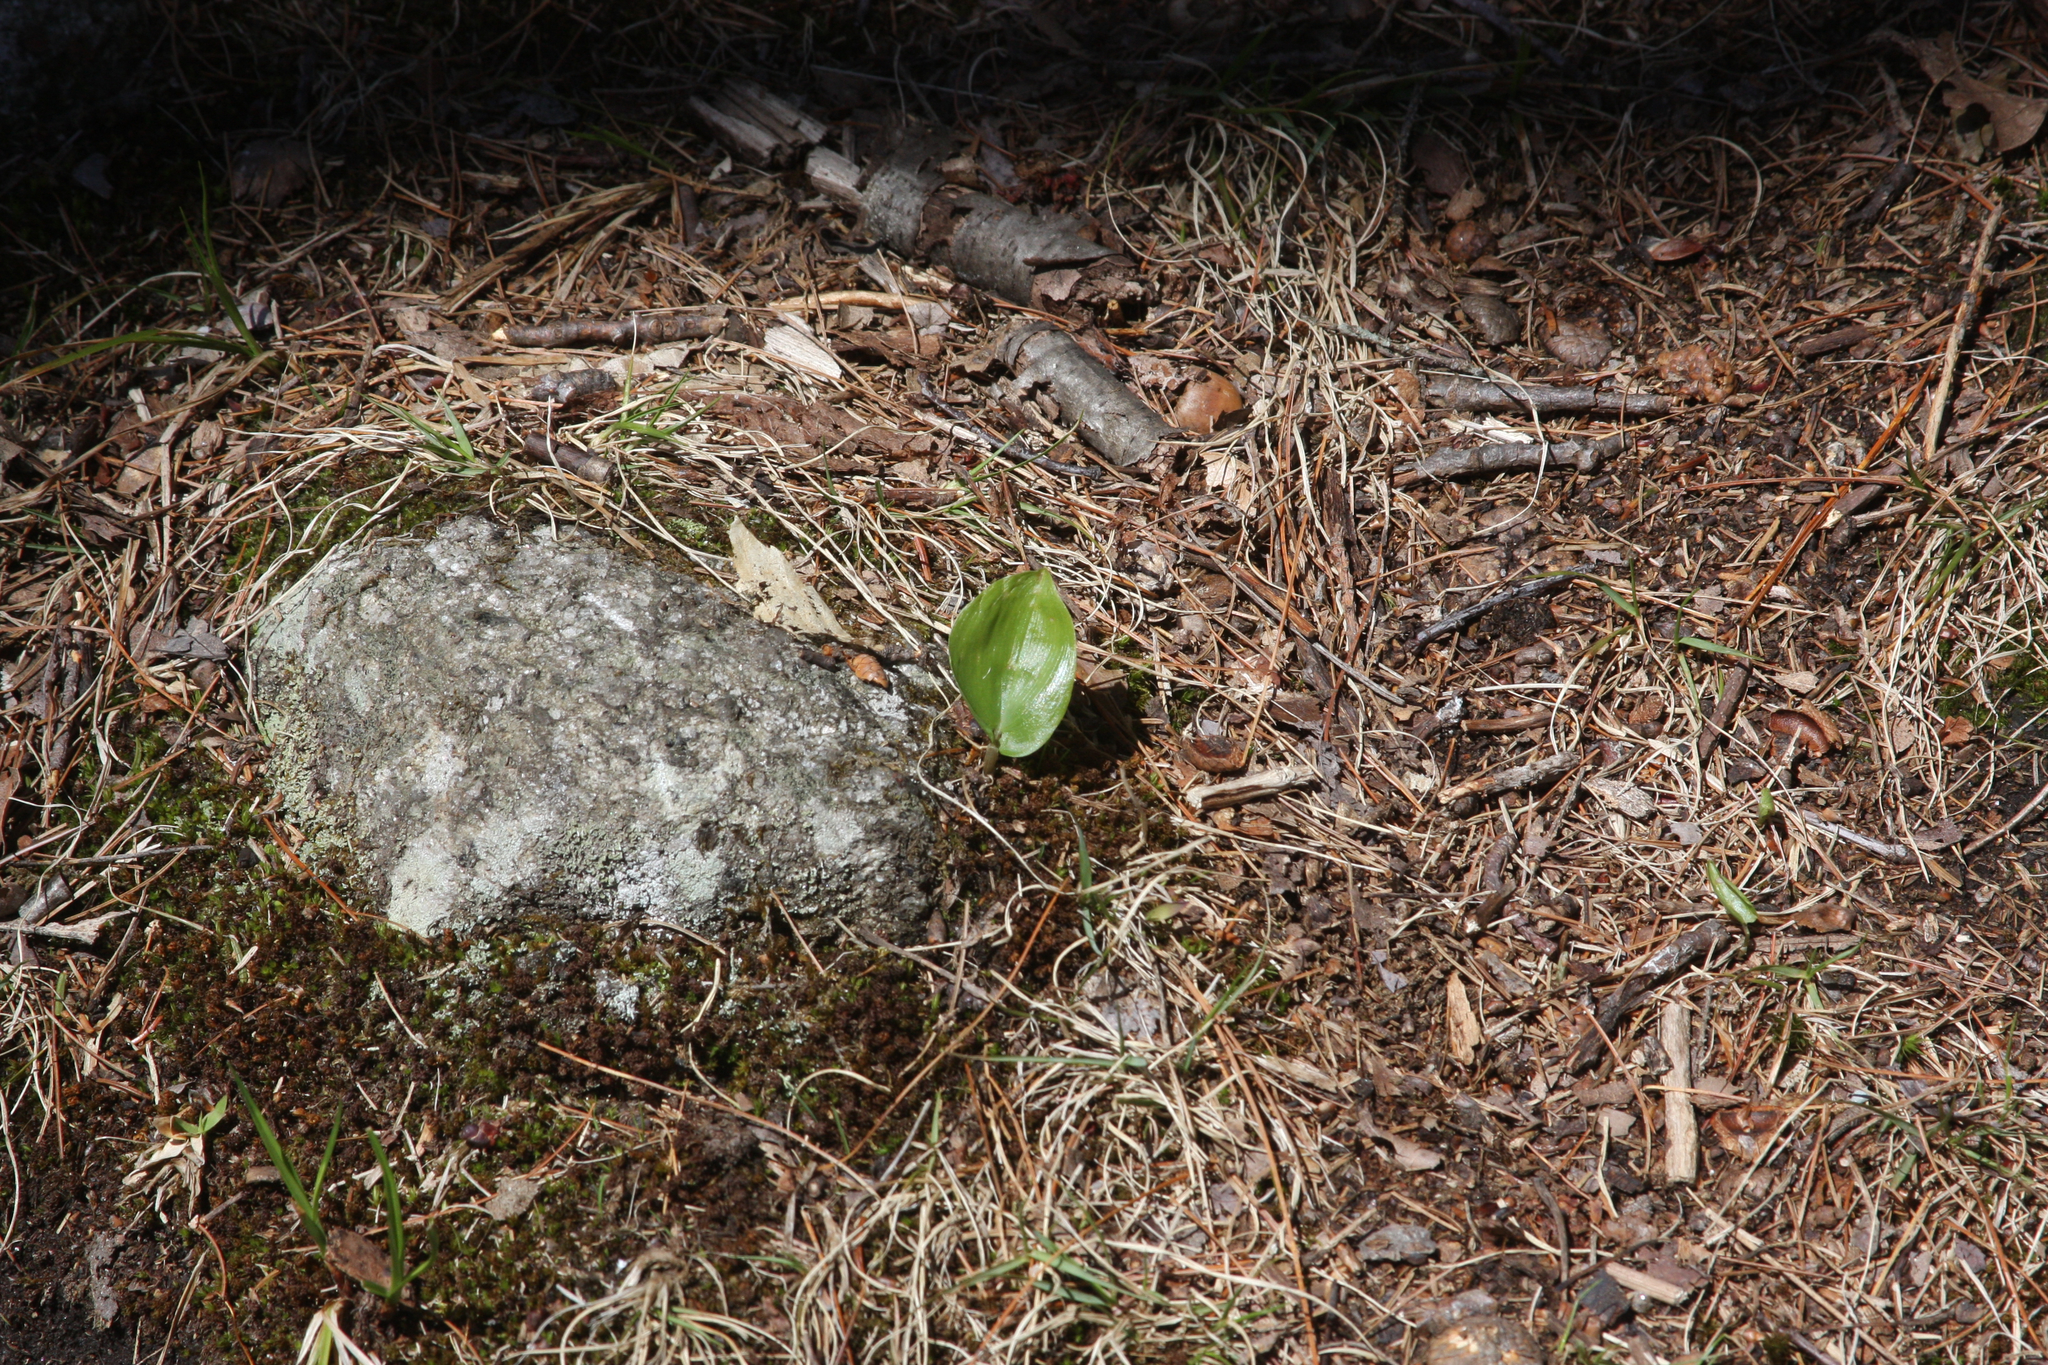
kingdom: Plantae
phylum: Tracheophyta
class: Liliopsida
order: Asparagales
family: Asparagaceae
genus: Maianthemum
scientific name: Maianthemum canadense
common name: False lily-of-the-valley
